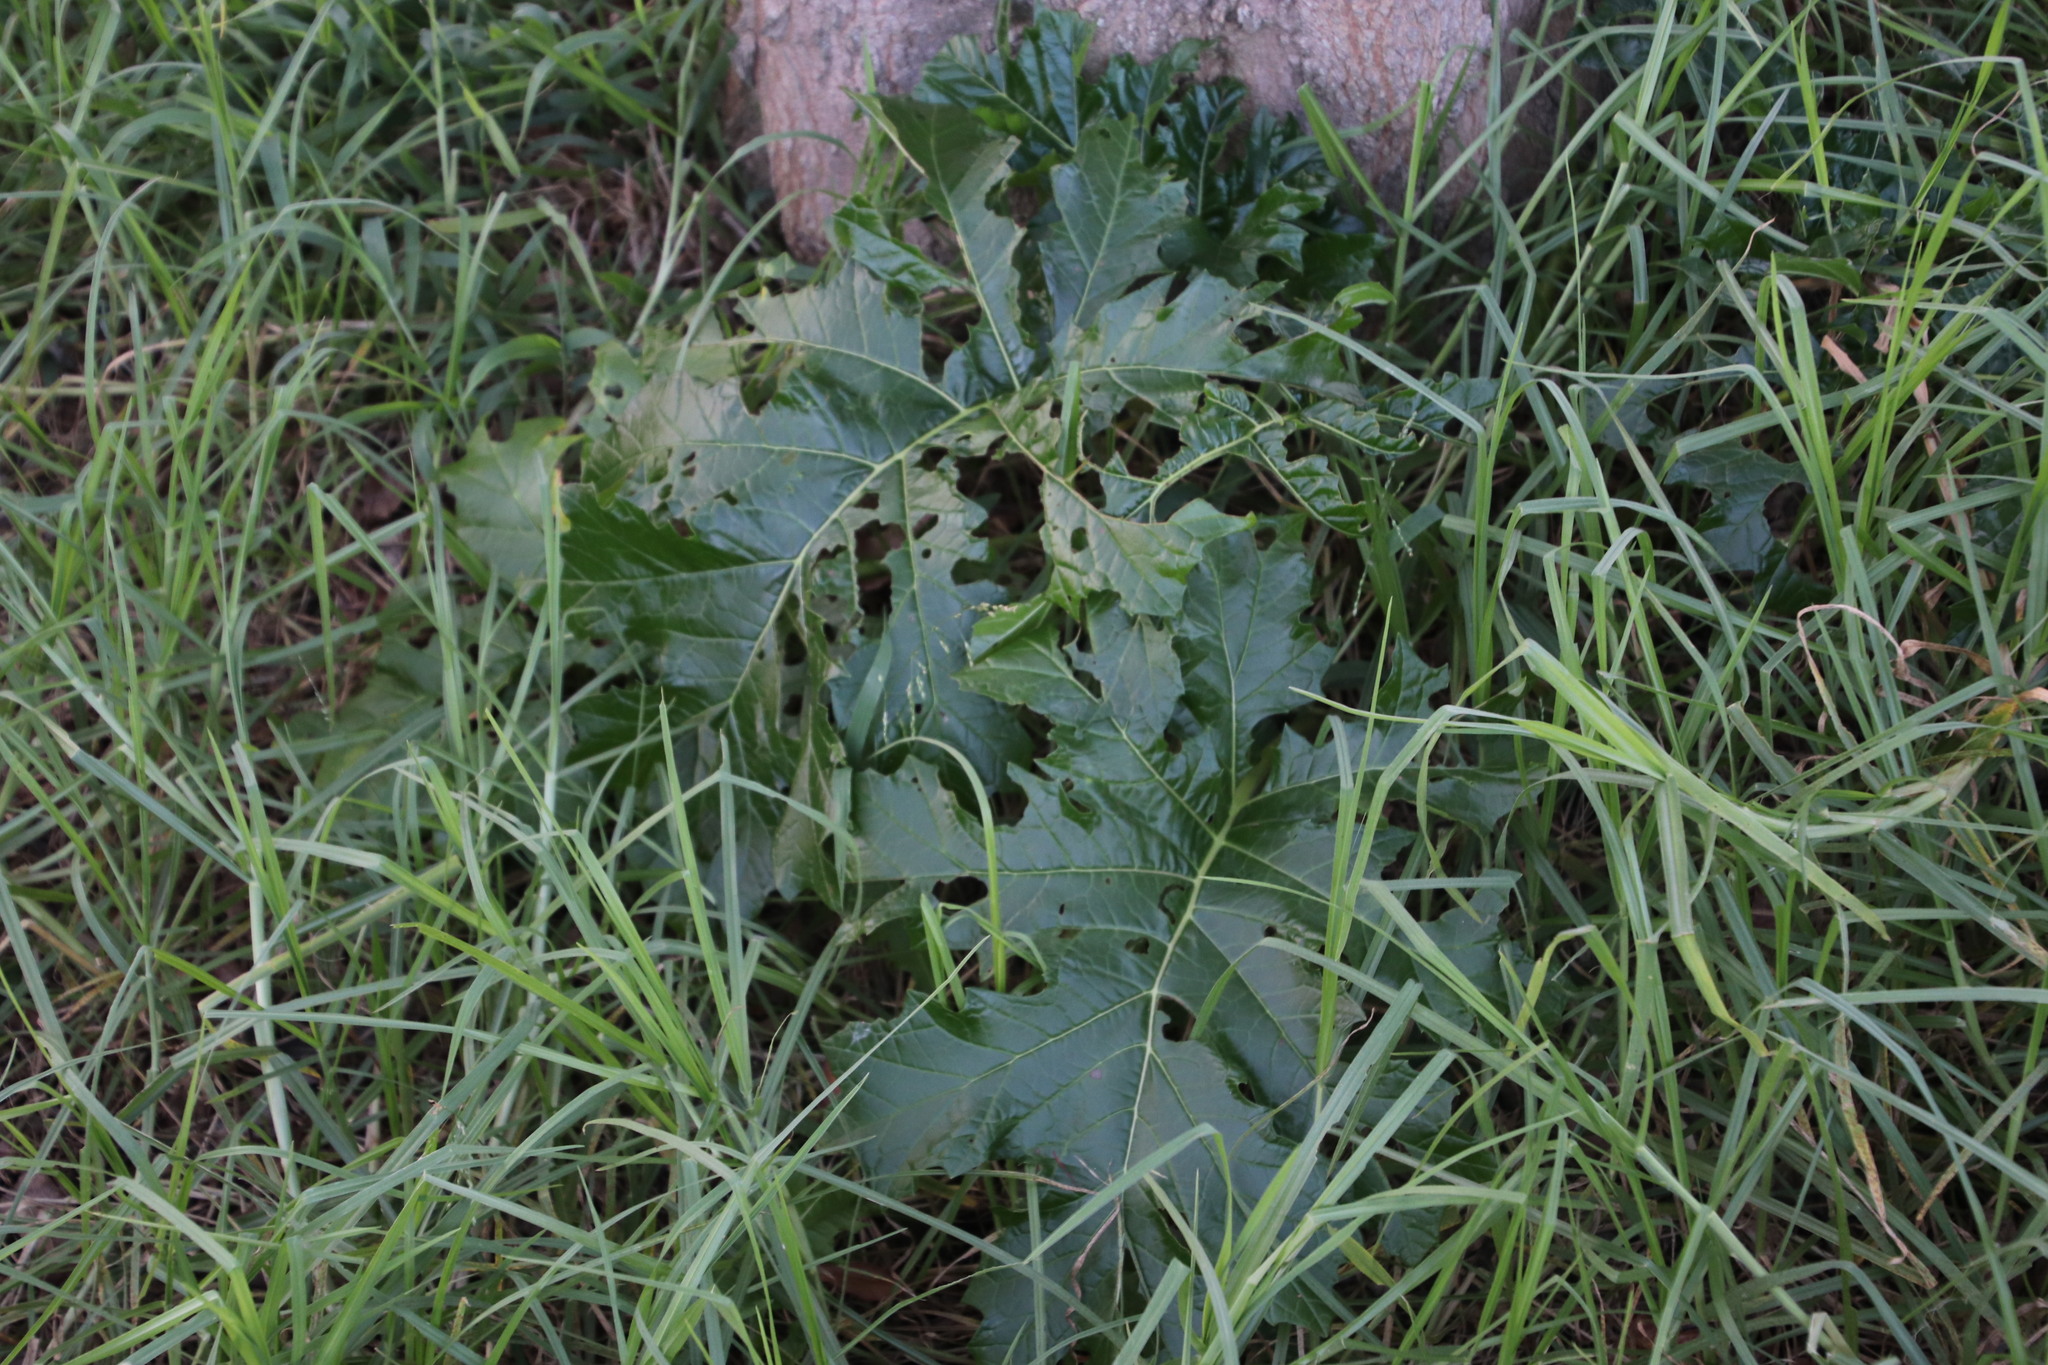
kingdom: Plantae
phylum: Tracheophyta
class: Magnoliopsida
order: Lamiales
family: Acanthaceae
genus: Acanthus
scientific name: Acanthus mollis
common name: Bear's-breech
